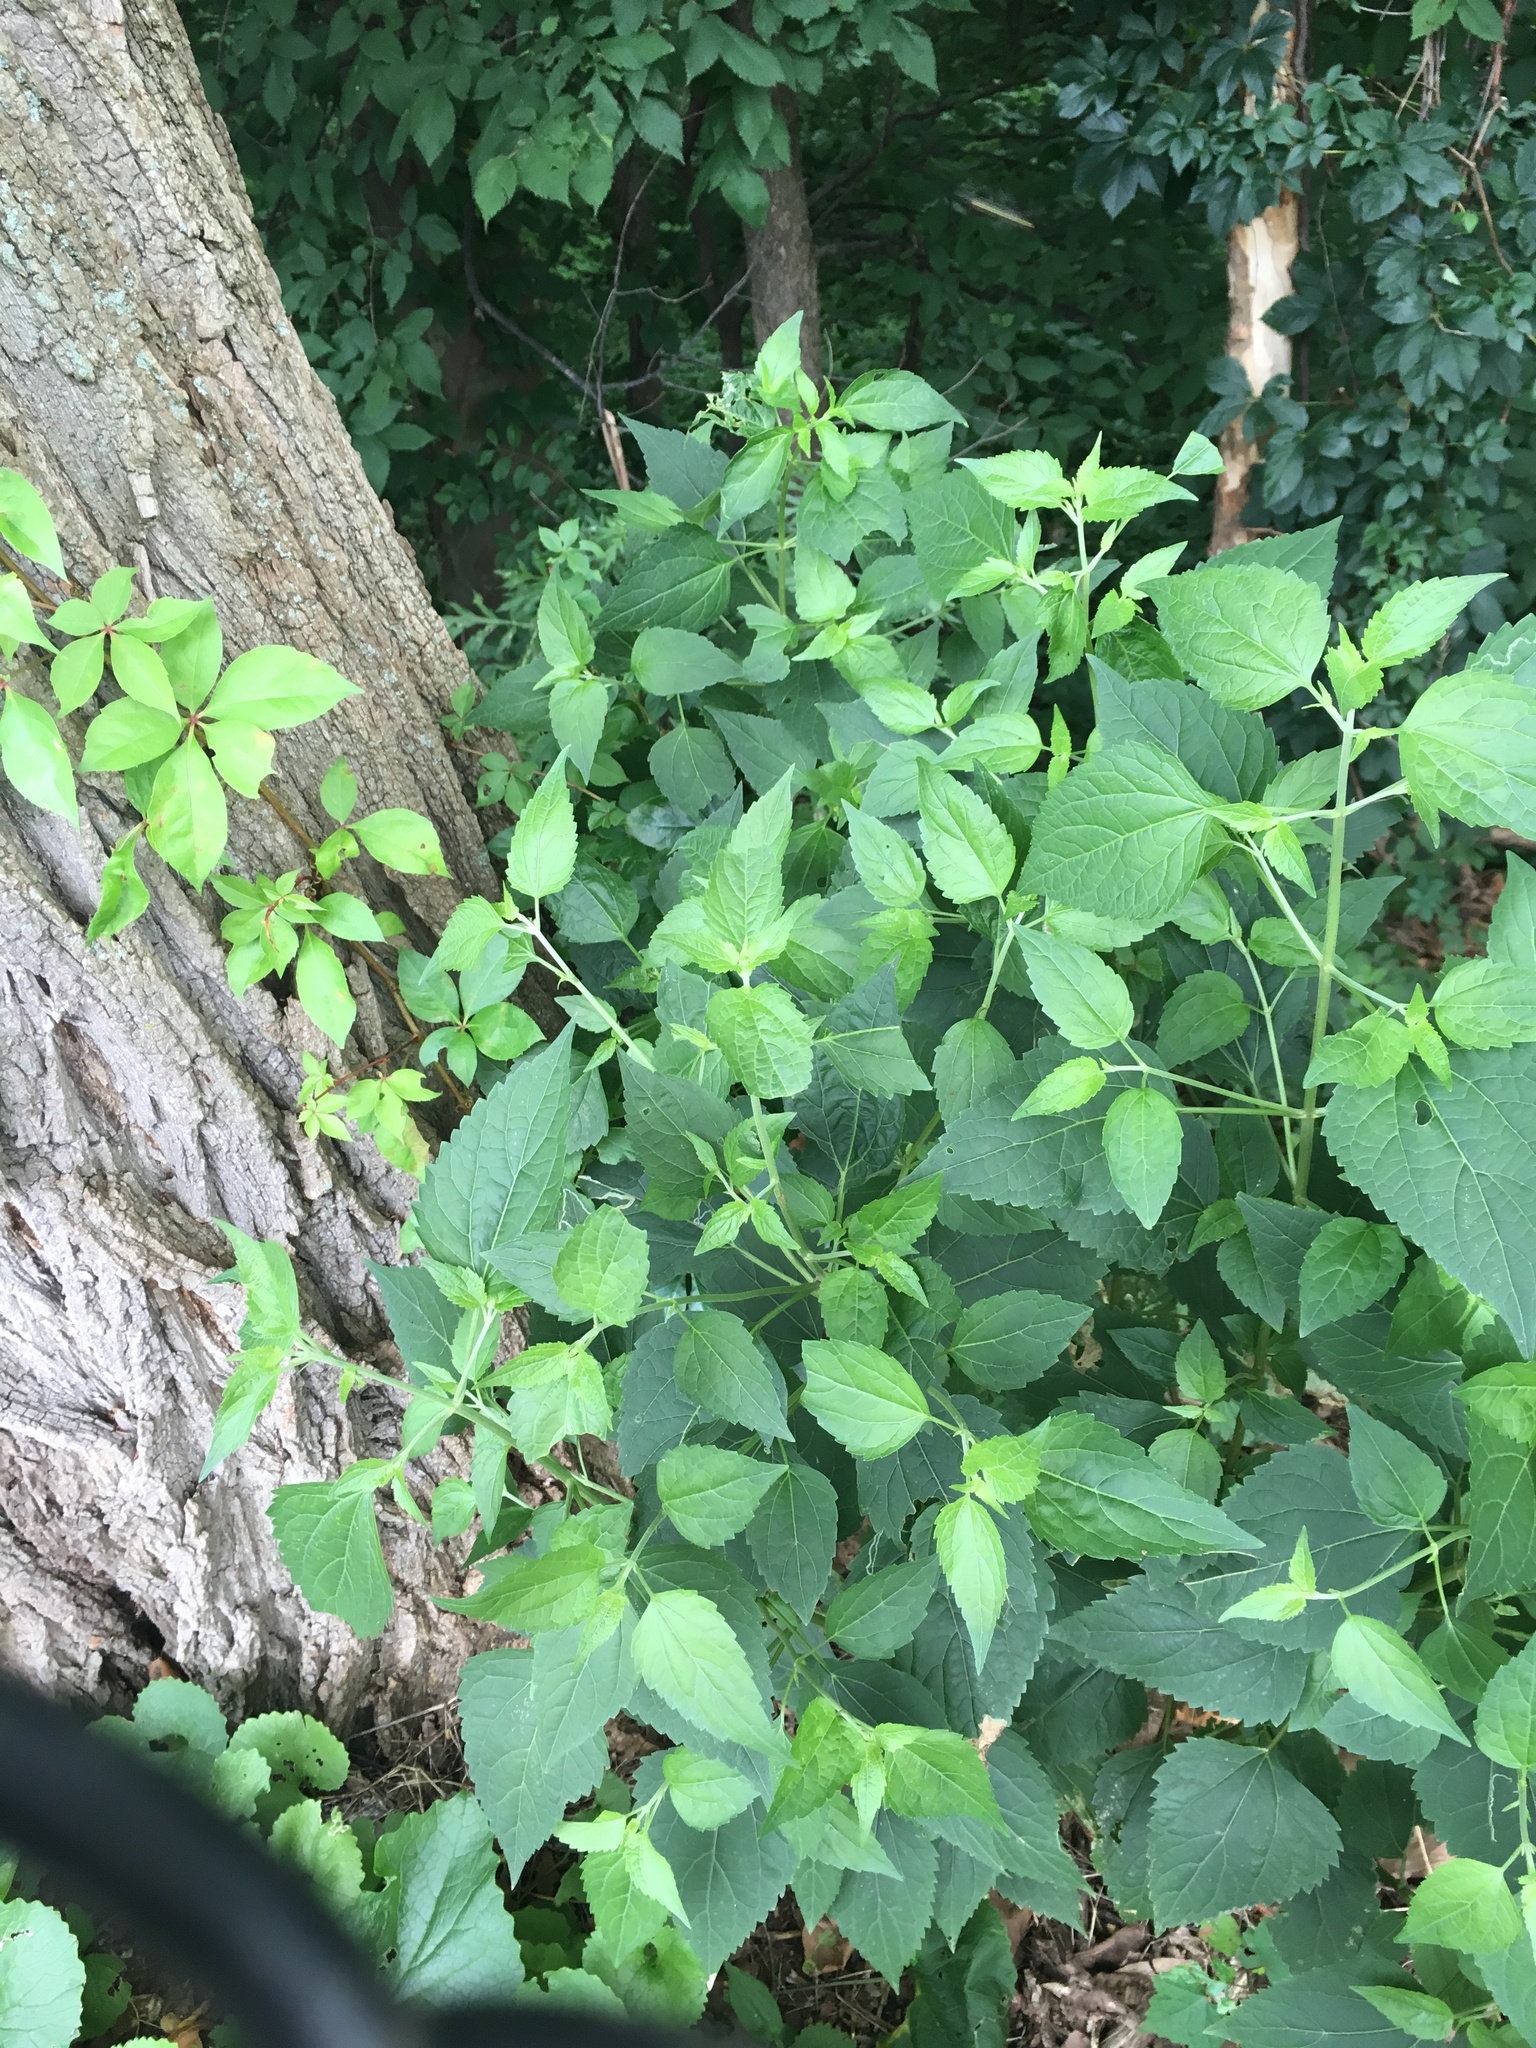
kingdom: Plantae
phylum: Tracheophyta
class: Magnoliopsida
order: Asterales
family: Asteraceae
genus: Ageratina
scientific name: Ageratina altissima
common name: White snakeroot
